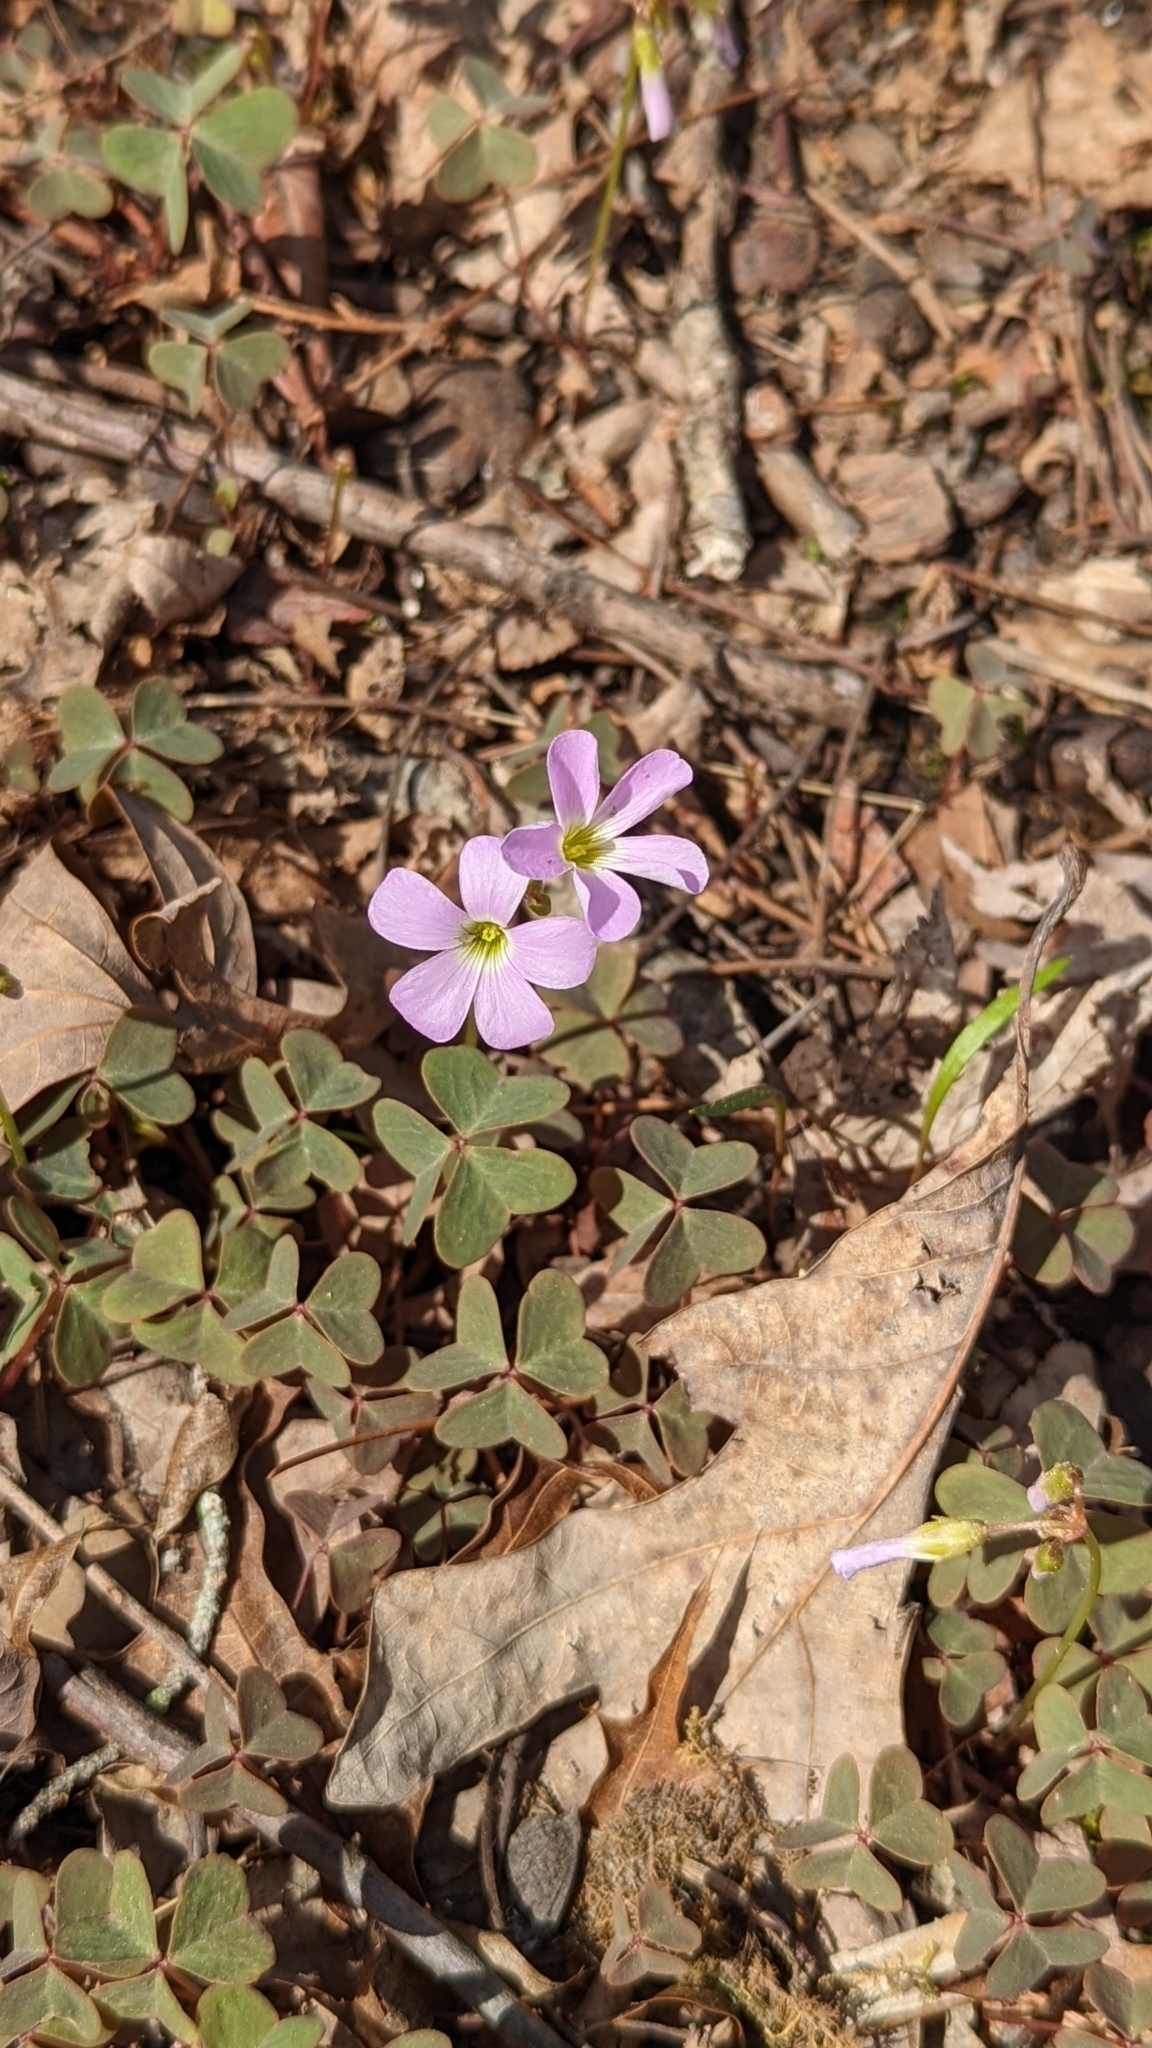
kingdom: Plantae
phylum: Tracheophyta
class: Magnoliopsida
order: Oxalidales
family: Oxalidaceae
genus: Oxalis
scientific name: Oxalis violacea
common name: Violet wood-sorrel
